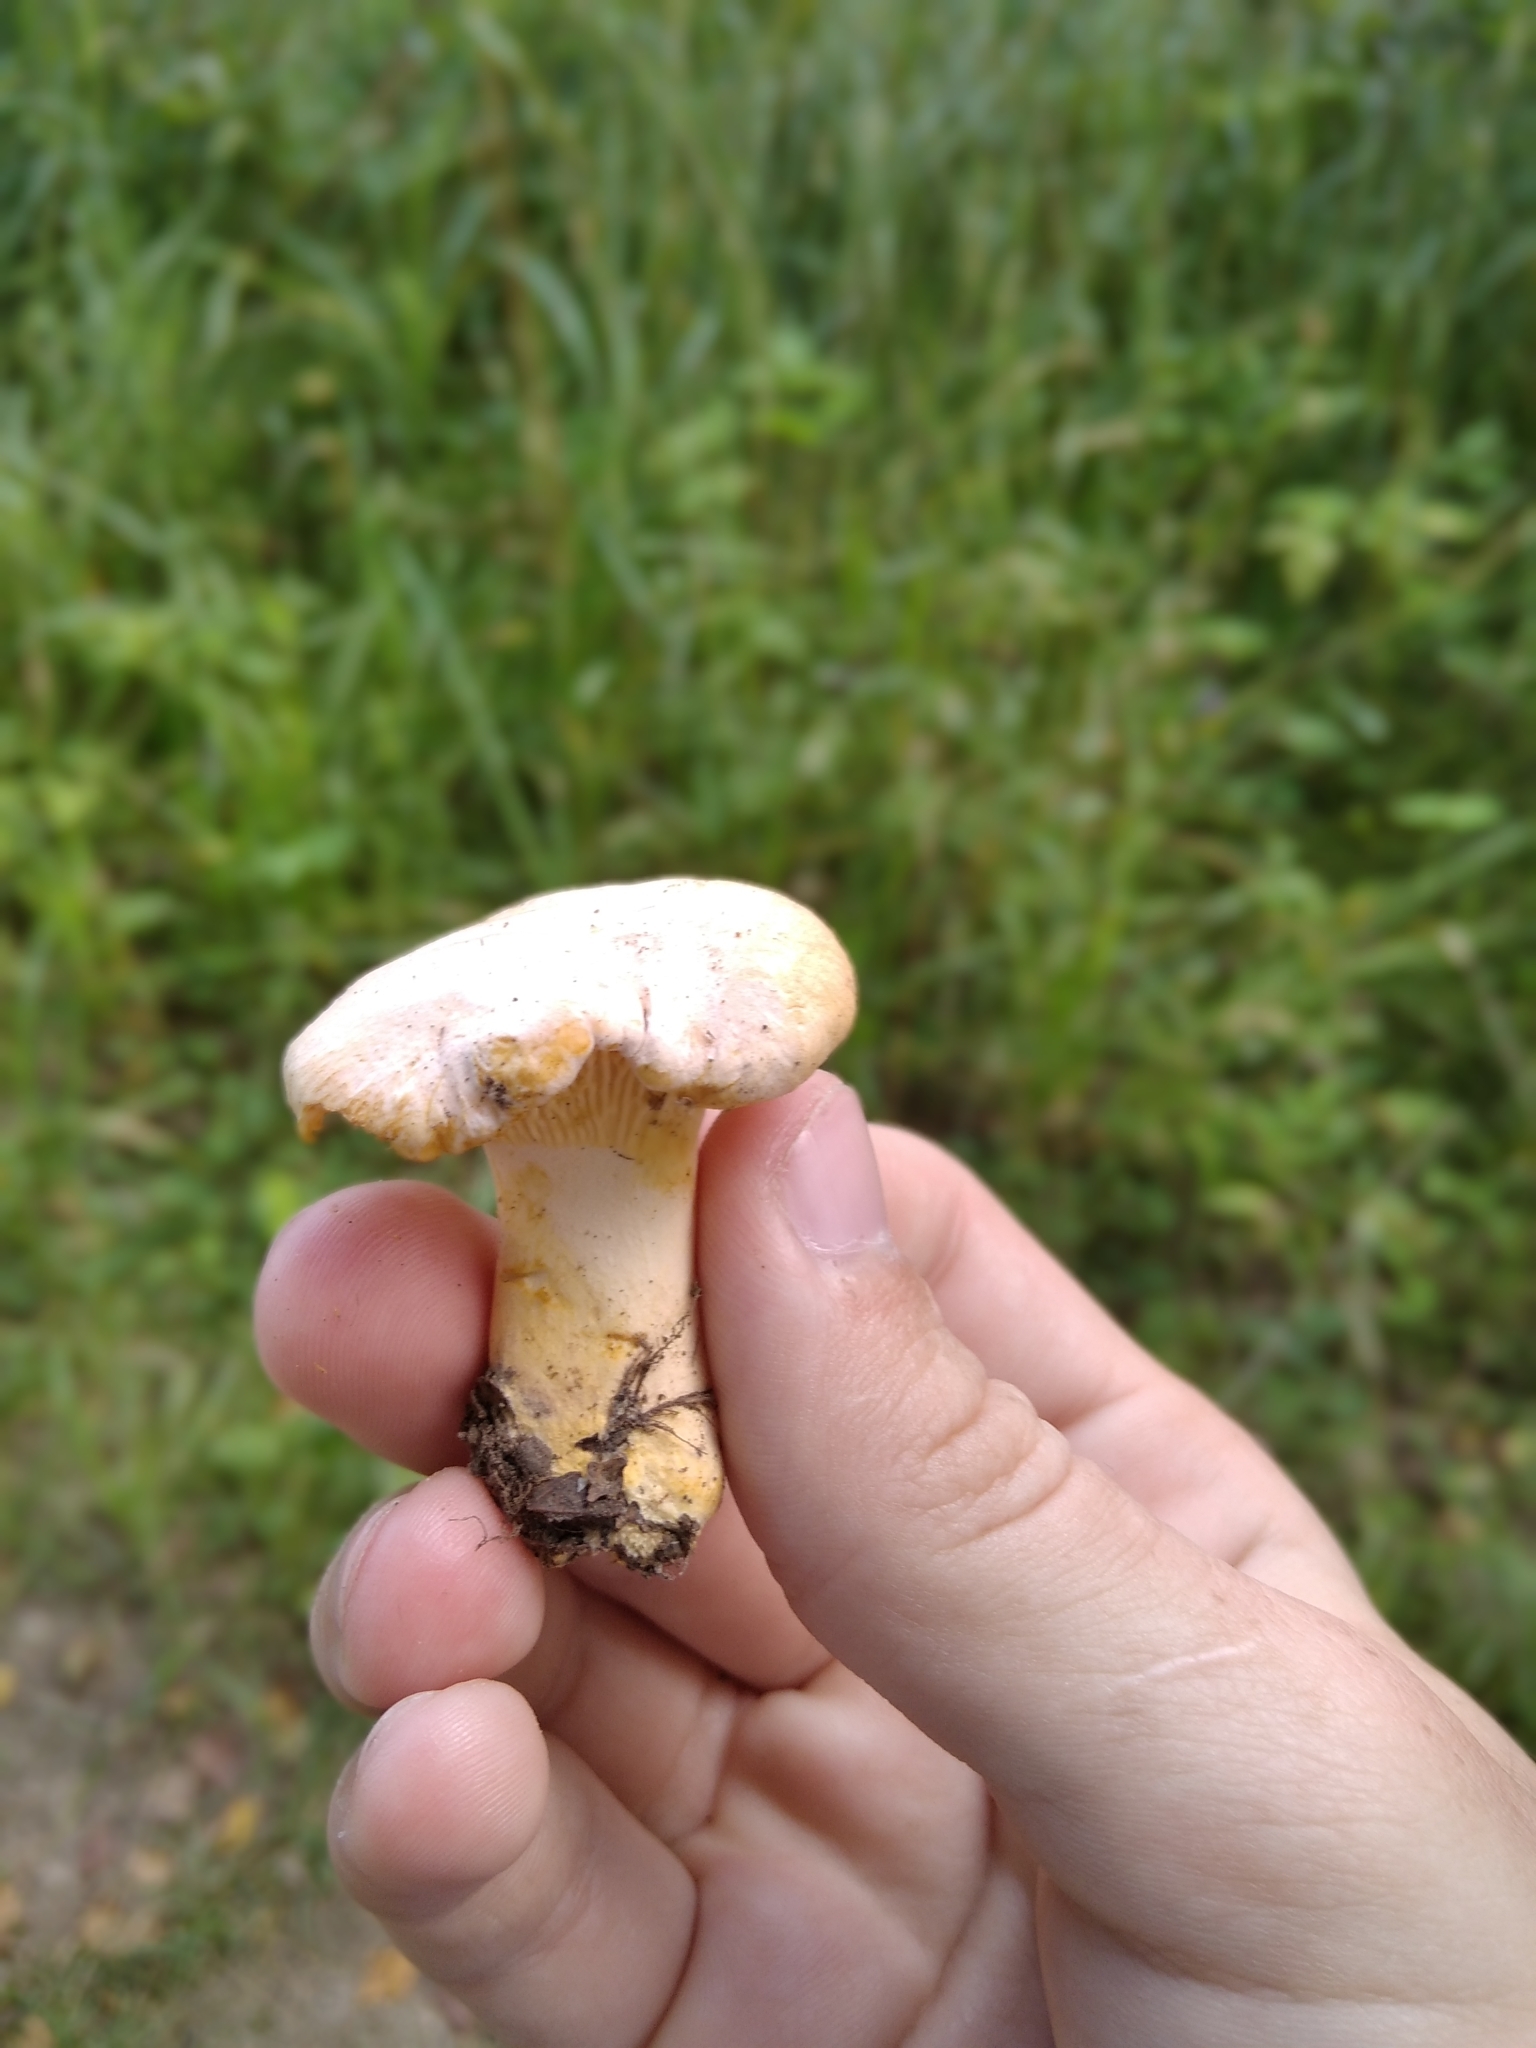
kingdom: Fungi
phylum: Basidiomycota
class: Agaricomycetes
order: Cantharellales
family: Hydnaceae
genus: Cantharellus
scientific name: Cantharellus pallens
